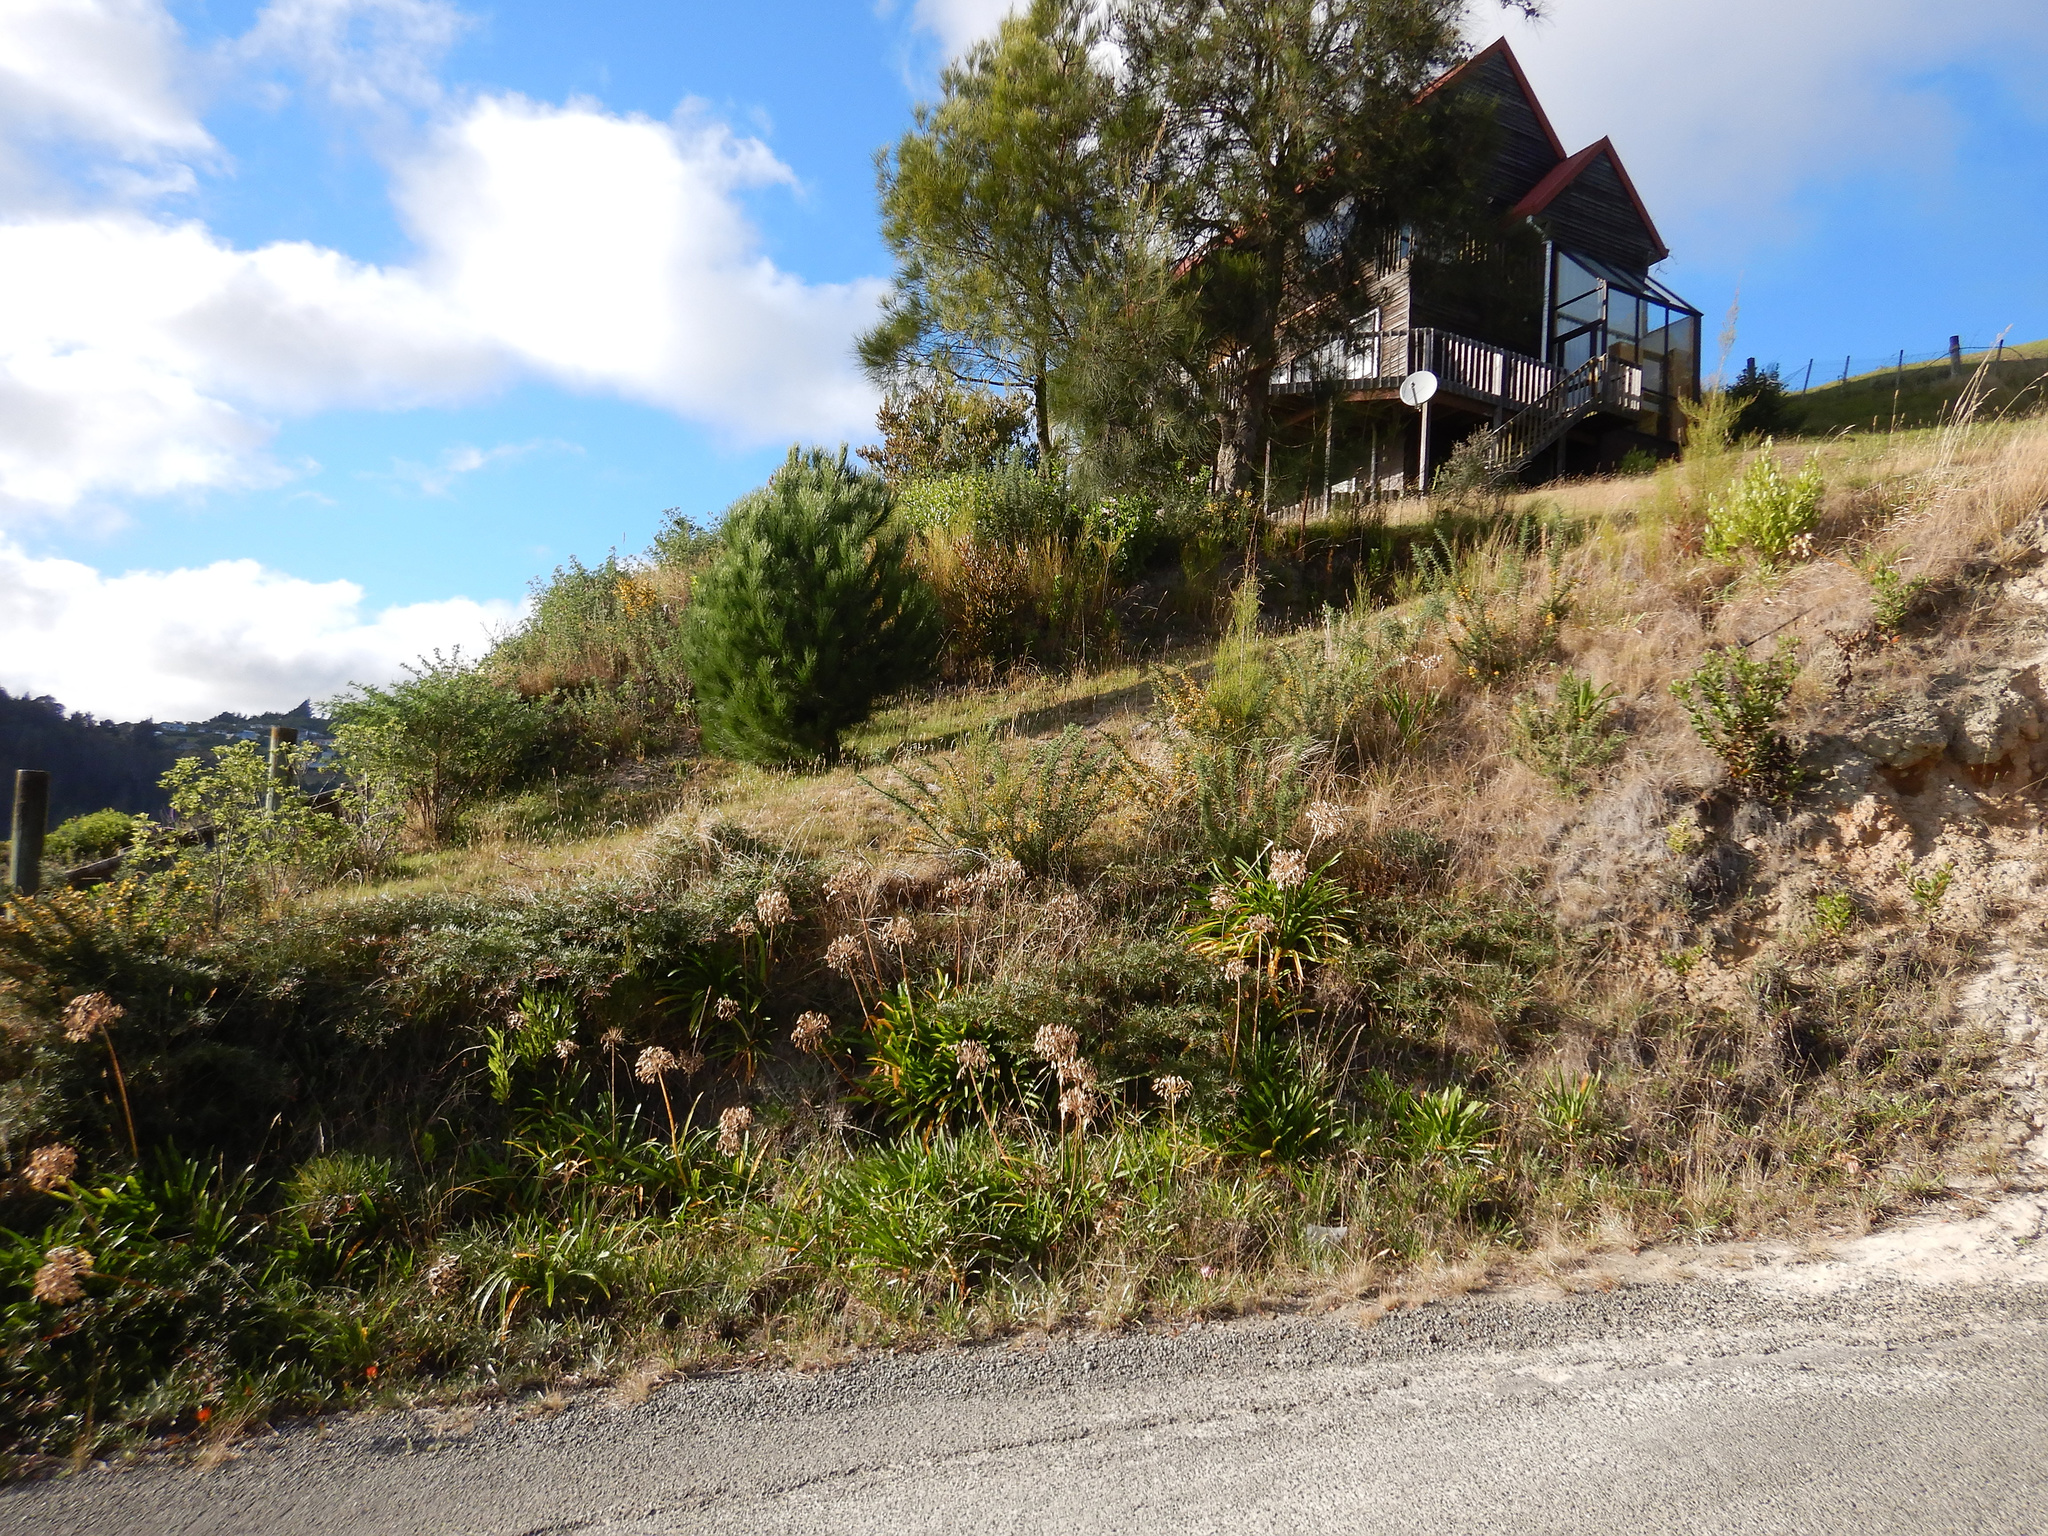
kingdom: Plantae
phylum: Tracheophyta
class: Liliopsida
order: Asparagales
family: Amaryllidaceae
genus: Agapanthus
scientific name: Agapanthus praecox
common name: African-lily
